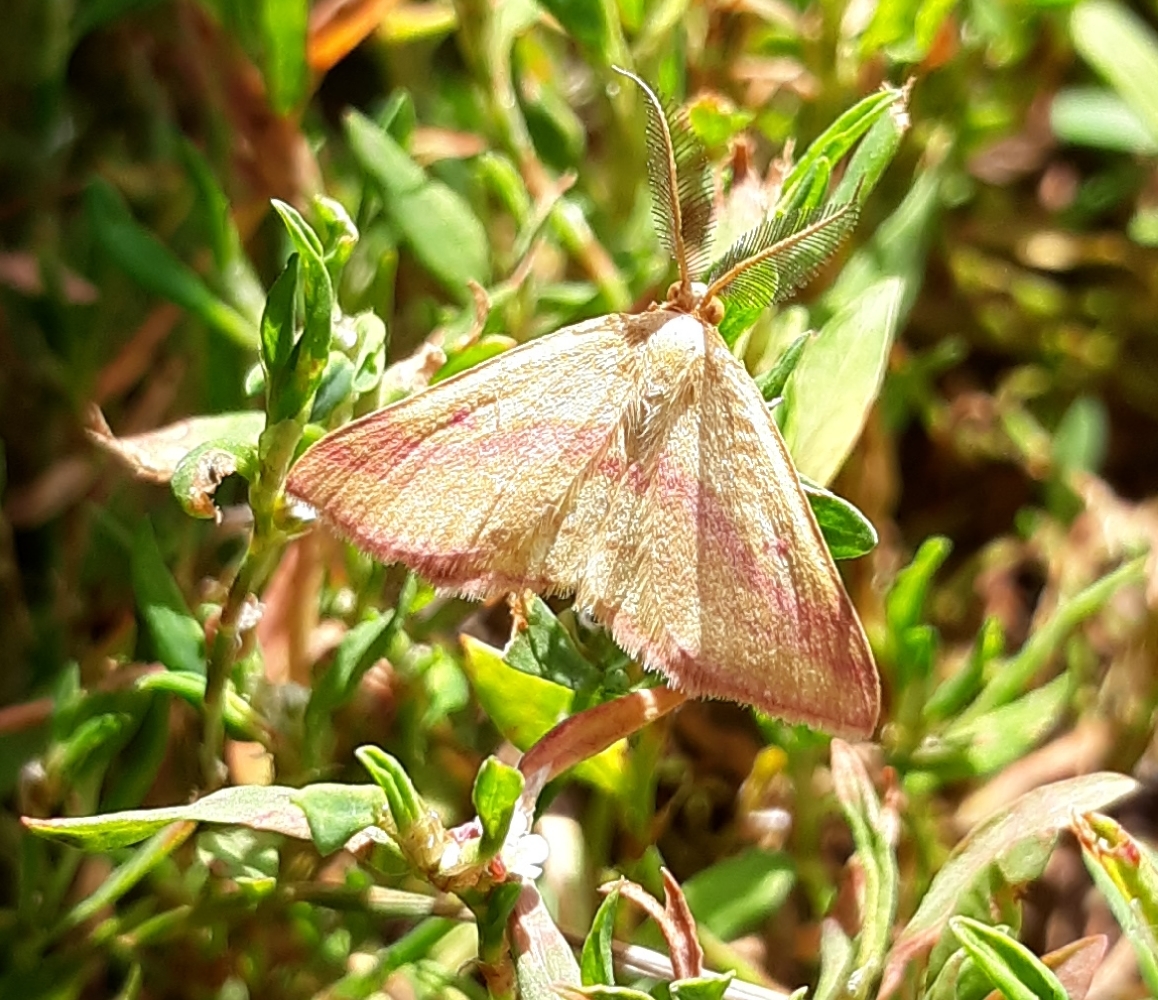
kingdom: Animalia
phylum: Arthropoda
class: Insecta
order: Lepidoptera
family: Geometridae
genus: Haematopis
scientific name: Haematopis grataria
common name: Chickweed geometer
